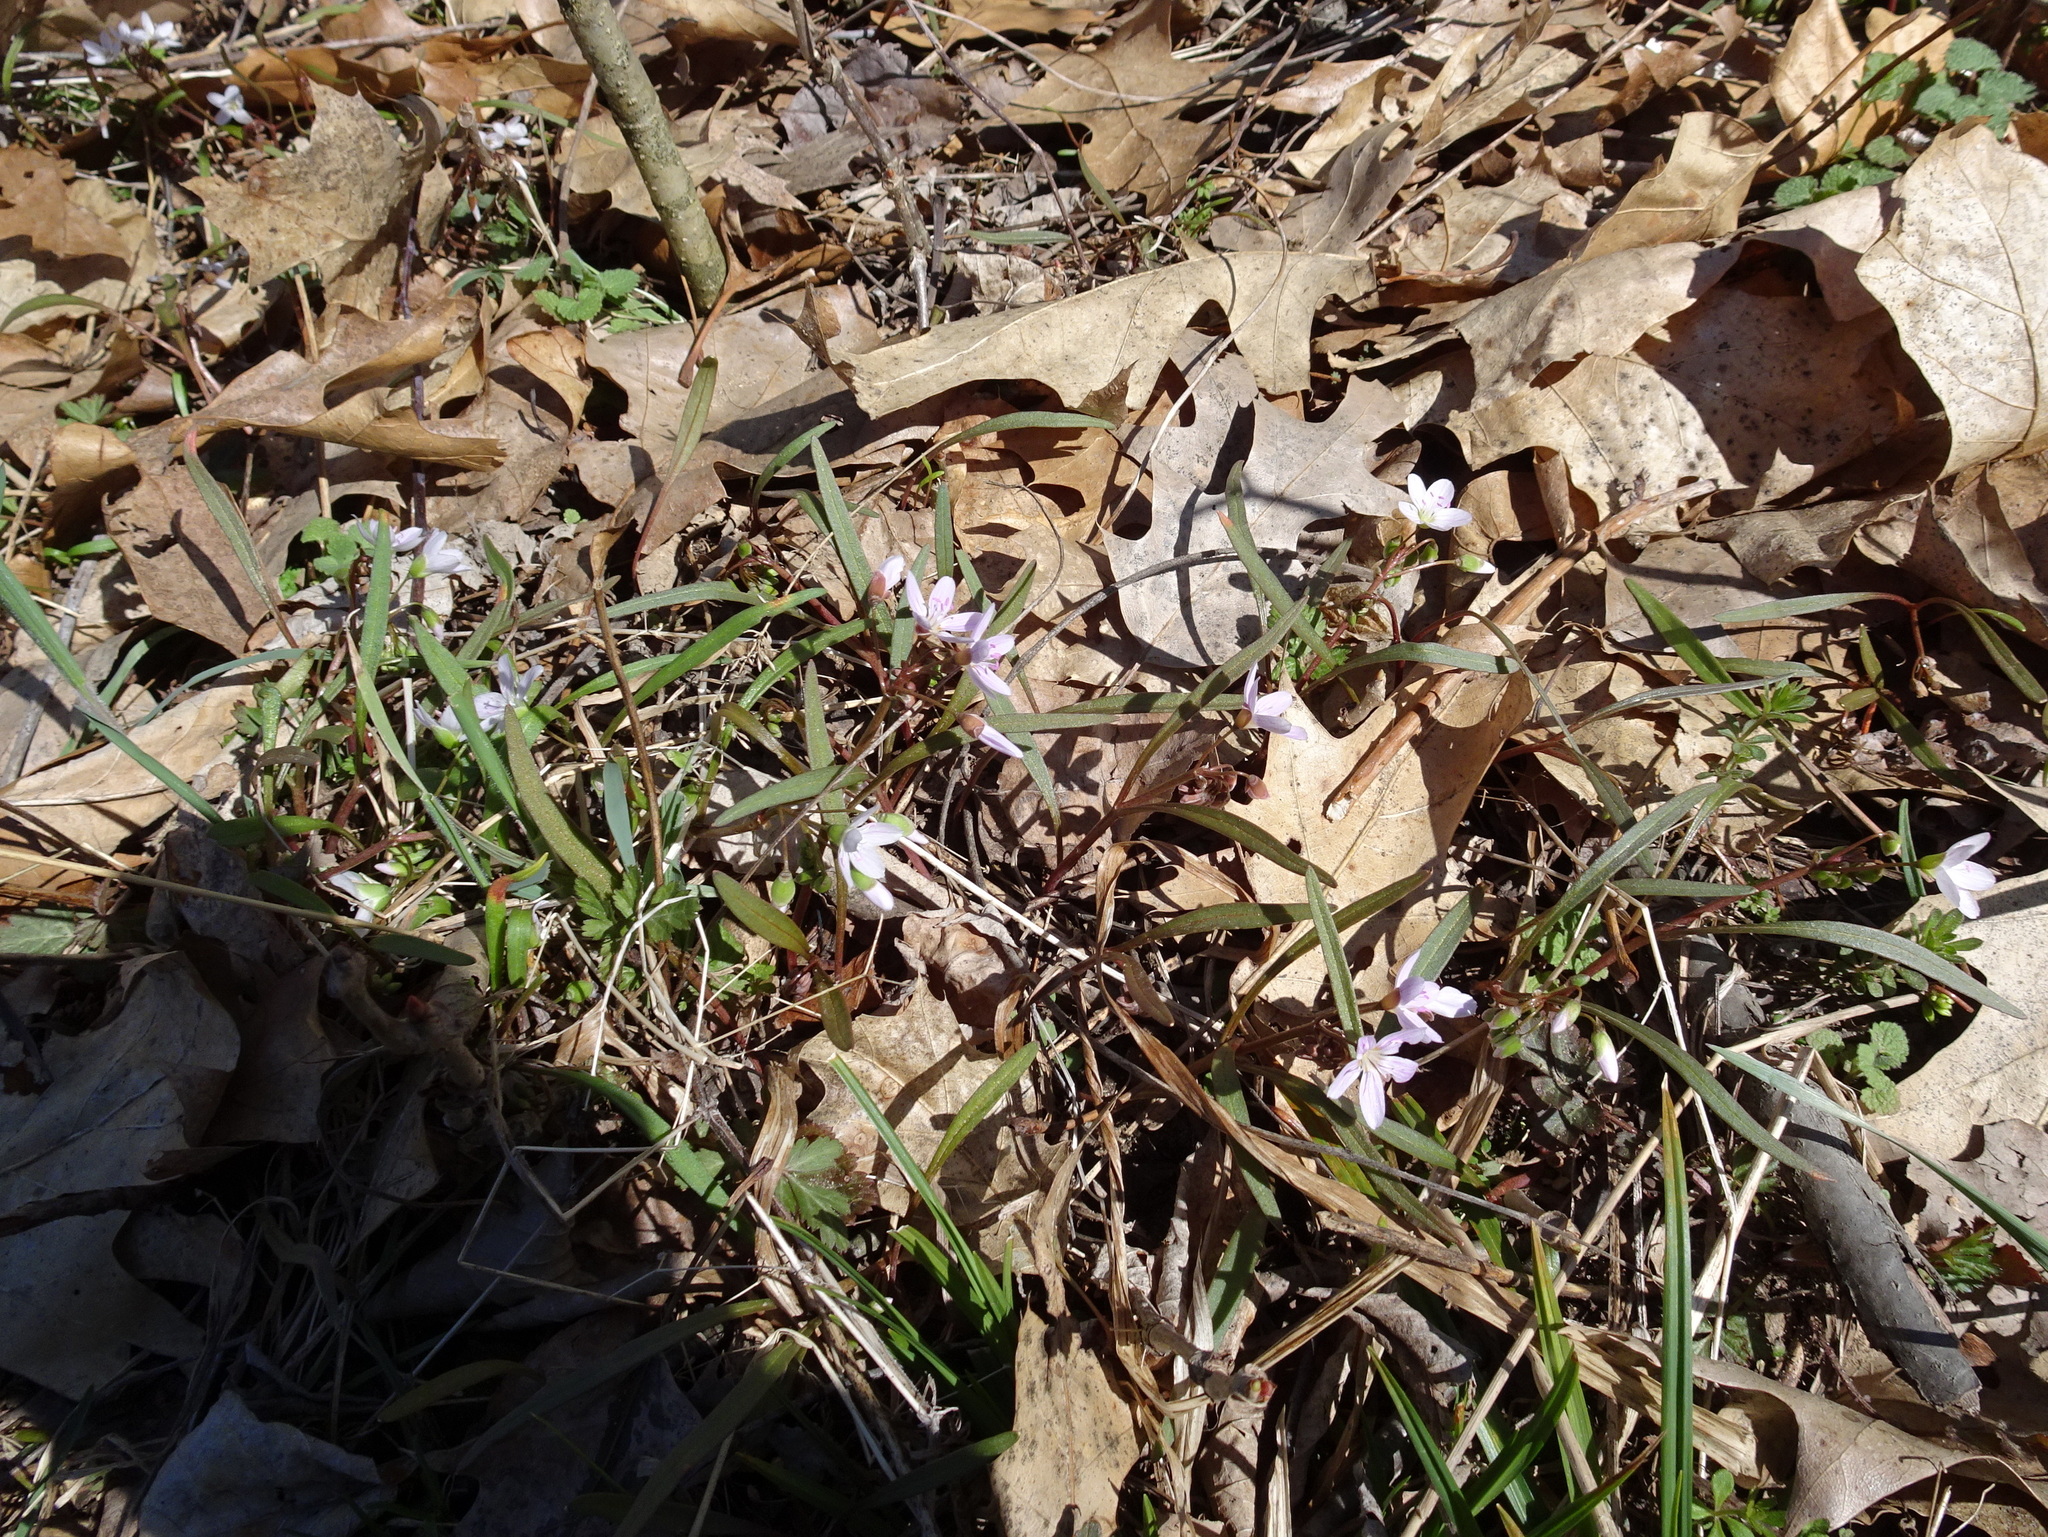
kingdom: Plantae
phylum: Tracheophyta
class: Magnoliopsida
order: Caryophyllales
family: Montiaceae
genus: Claytonia
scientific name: Claytonia virginica
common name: Virginia springbeauty
